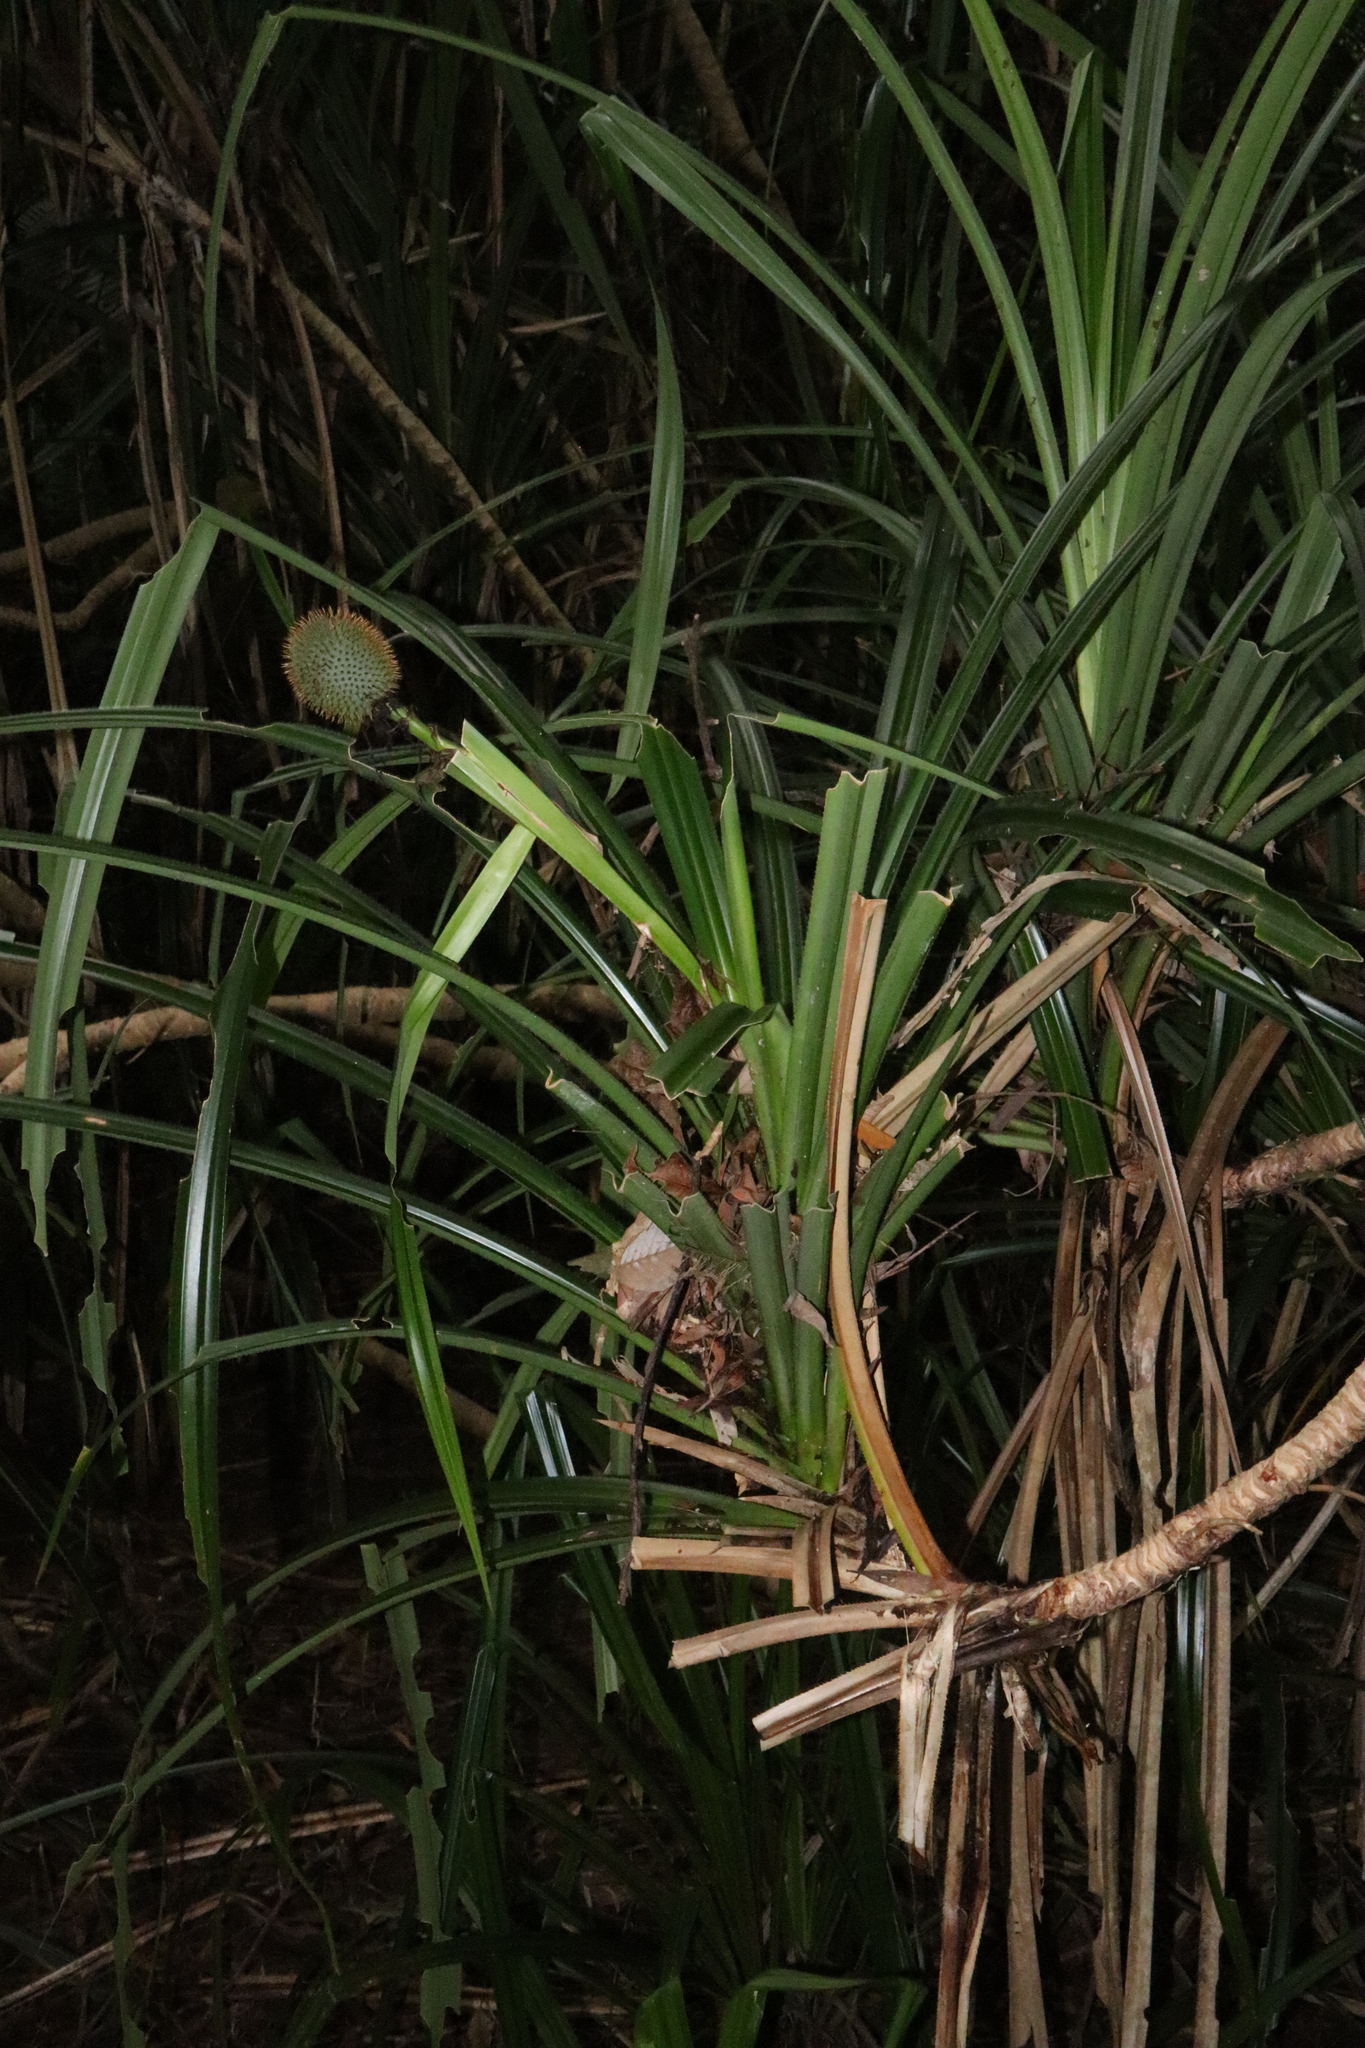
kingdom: Plantae
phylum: Tracheophyta
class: Liliopsida
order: Pandanales
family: Pandanaceae
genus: Benstonea
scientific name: Benstonea monticola
